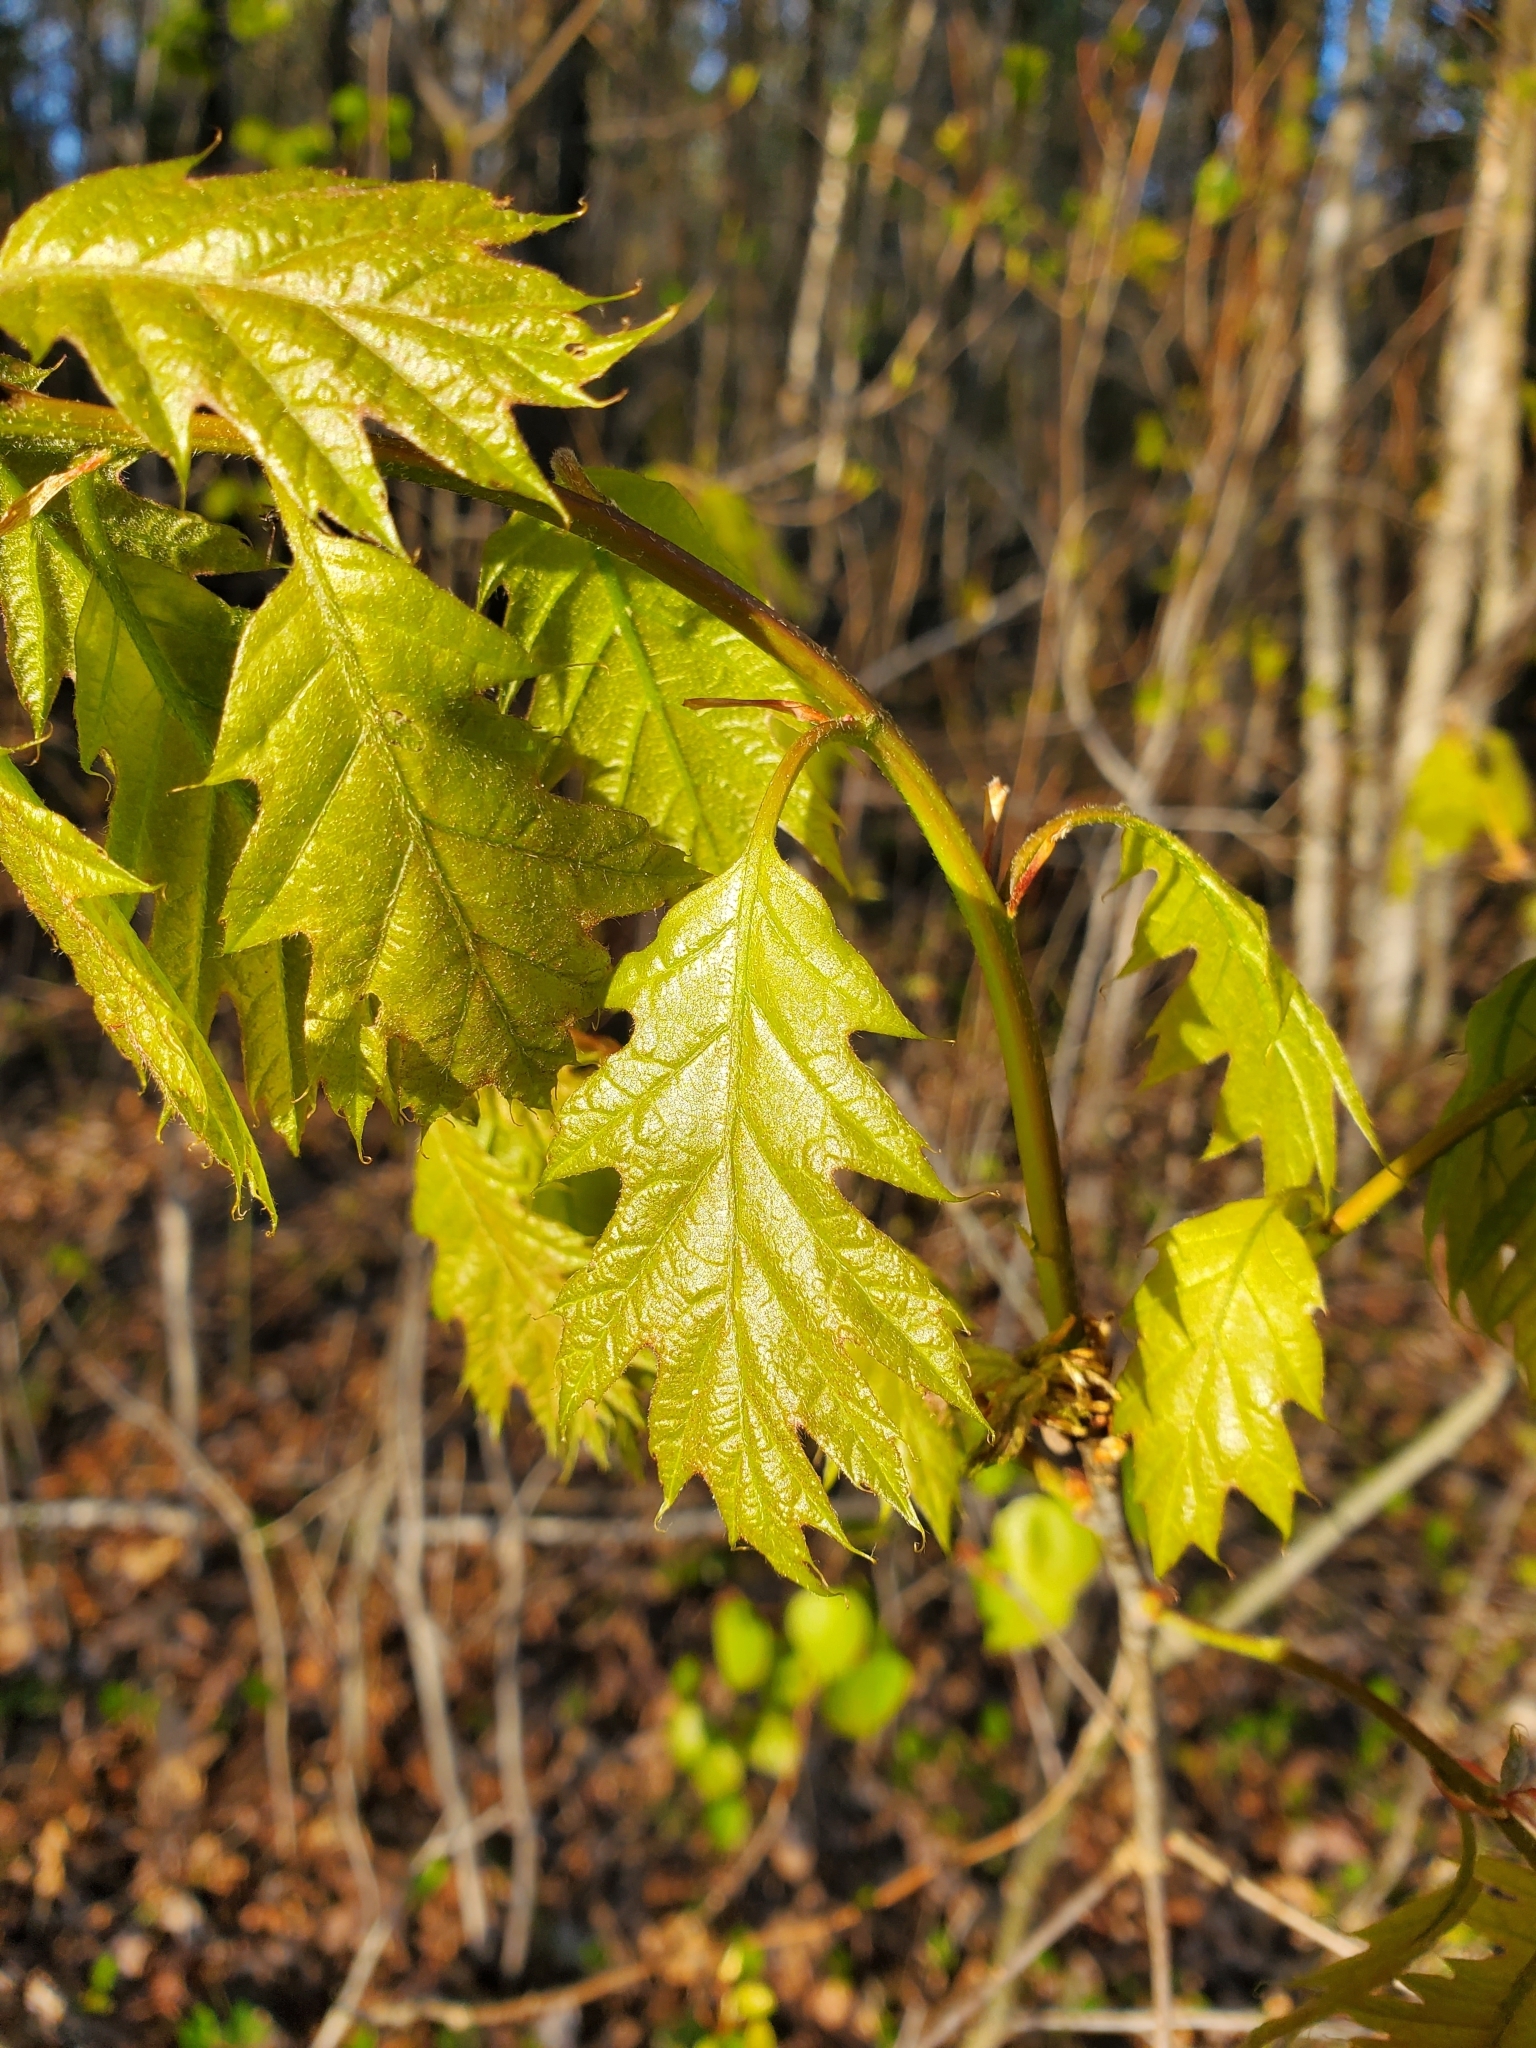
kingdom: Plantae
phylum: Tracheophyta
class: Magnoliopsida
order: Fagales
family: Fagaceae
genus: Quercus
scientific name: Quercus rubra
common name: Red oak
